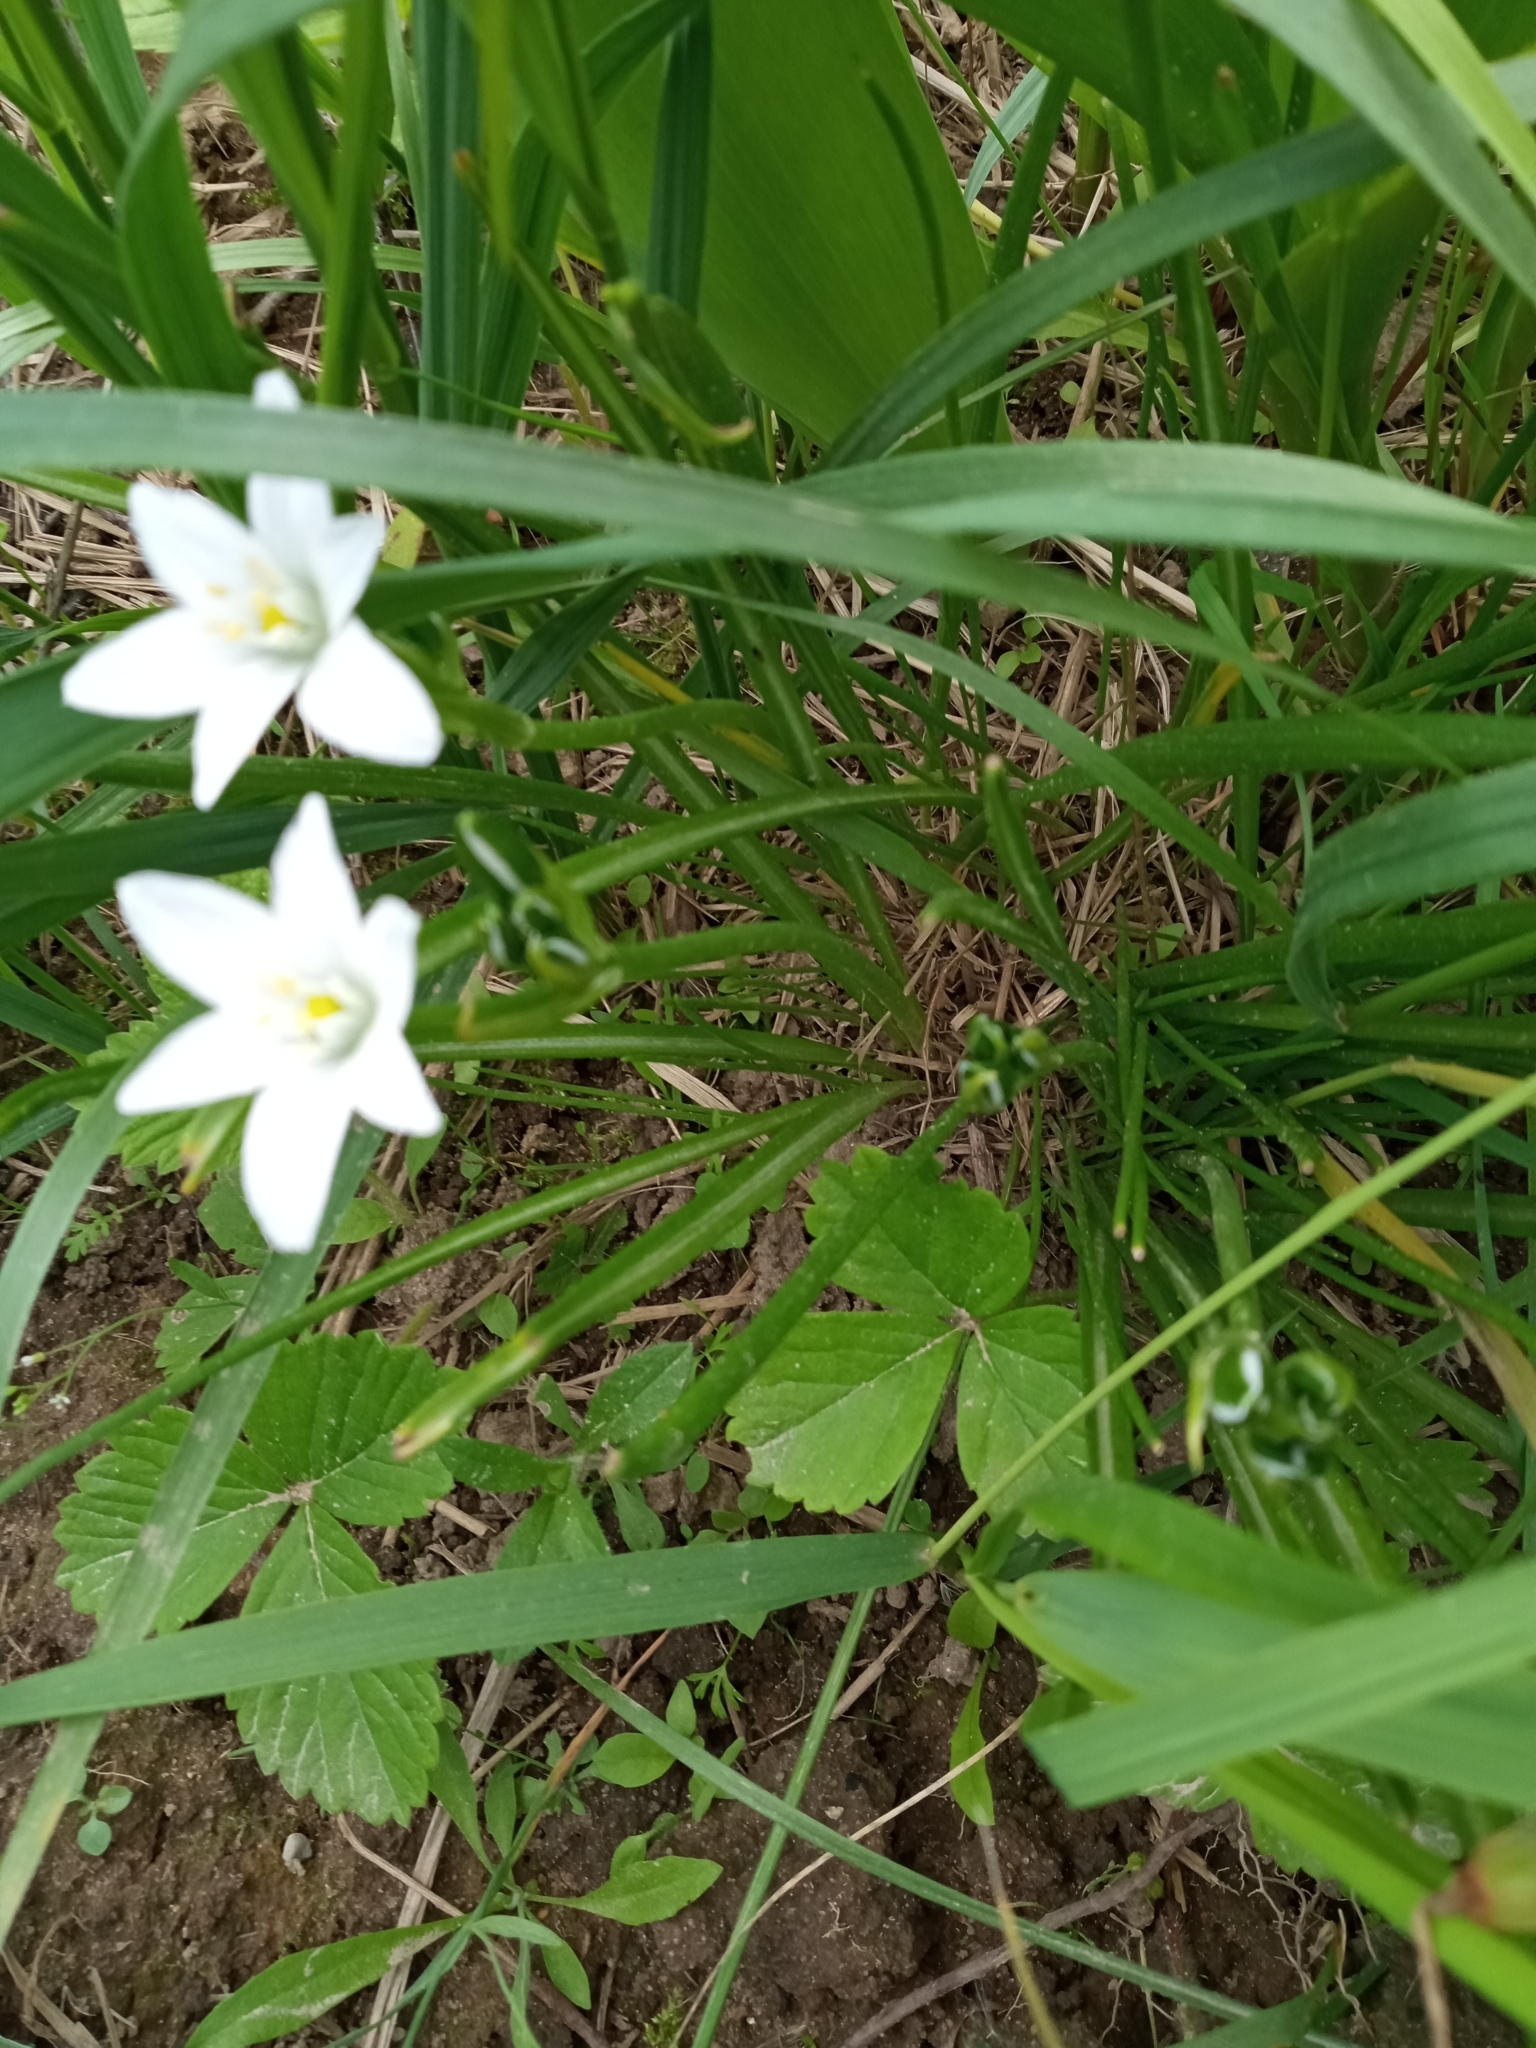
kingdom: Plantae
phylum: Tracheophyta
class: Liliopsida
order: Asparagales
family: Asparagaceae
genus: Ornithogalum
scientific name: Ornithogalum umbellatum
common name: Garden star-of-bethlehem
